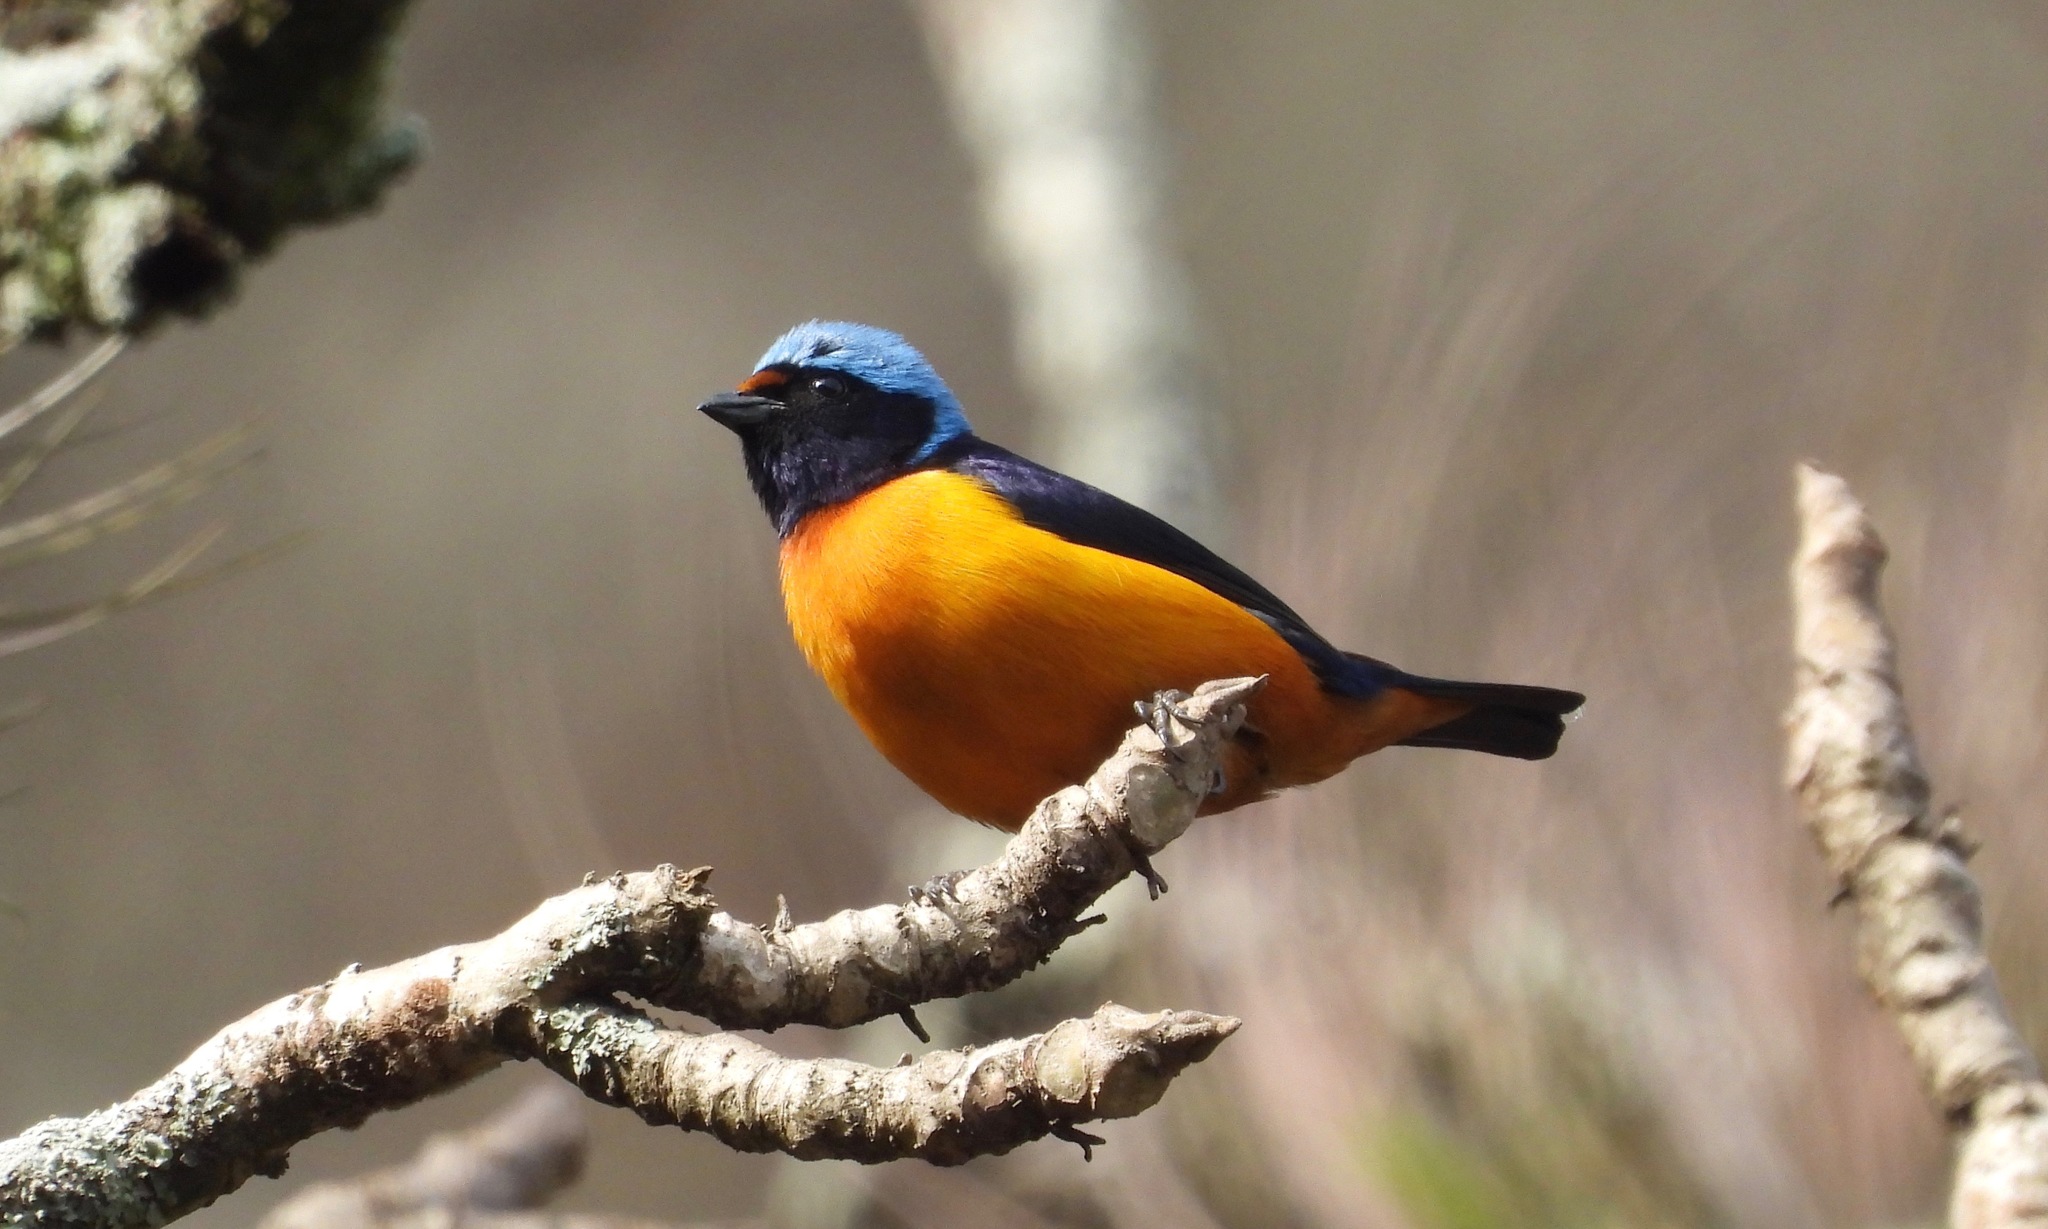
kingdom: Animalia
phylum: Chordata
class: Aves
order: Passeriformes
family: Fringillidae
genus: Euphonia
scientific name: Euphonia elegantissima
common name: Elegant euphonia
